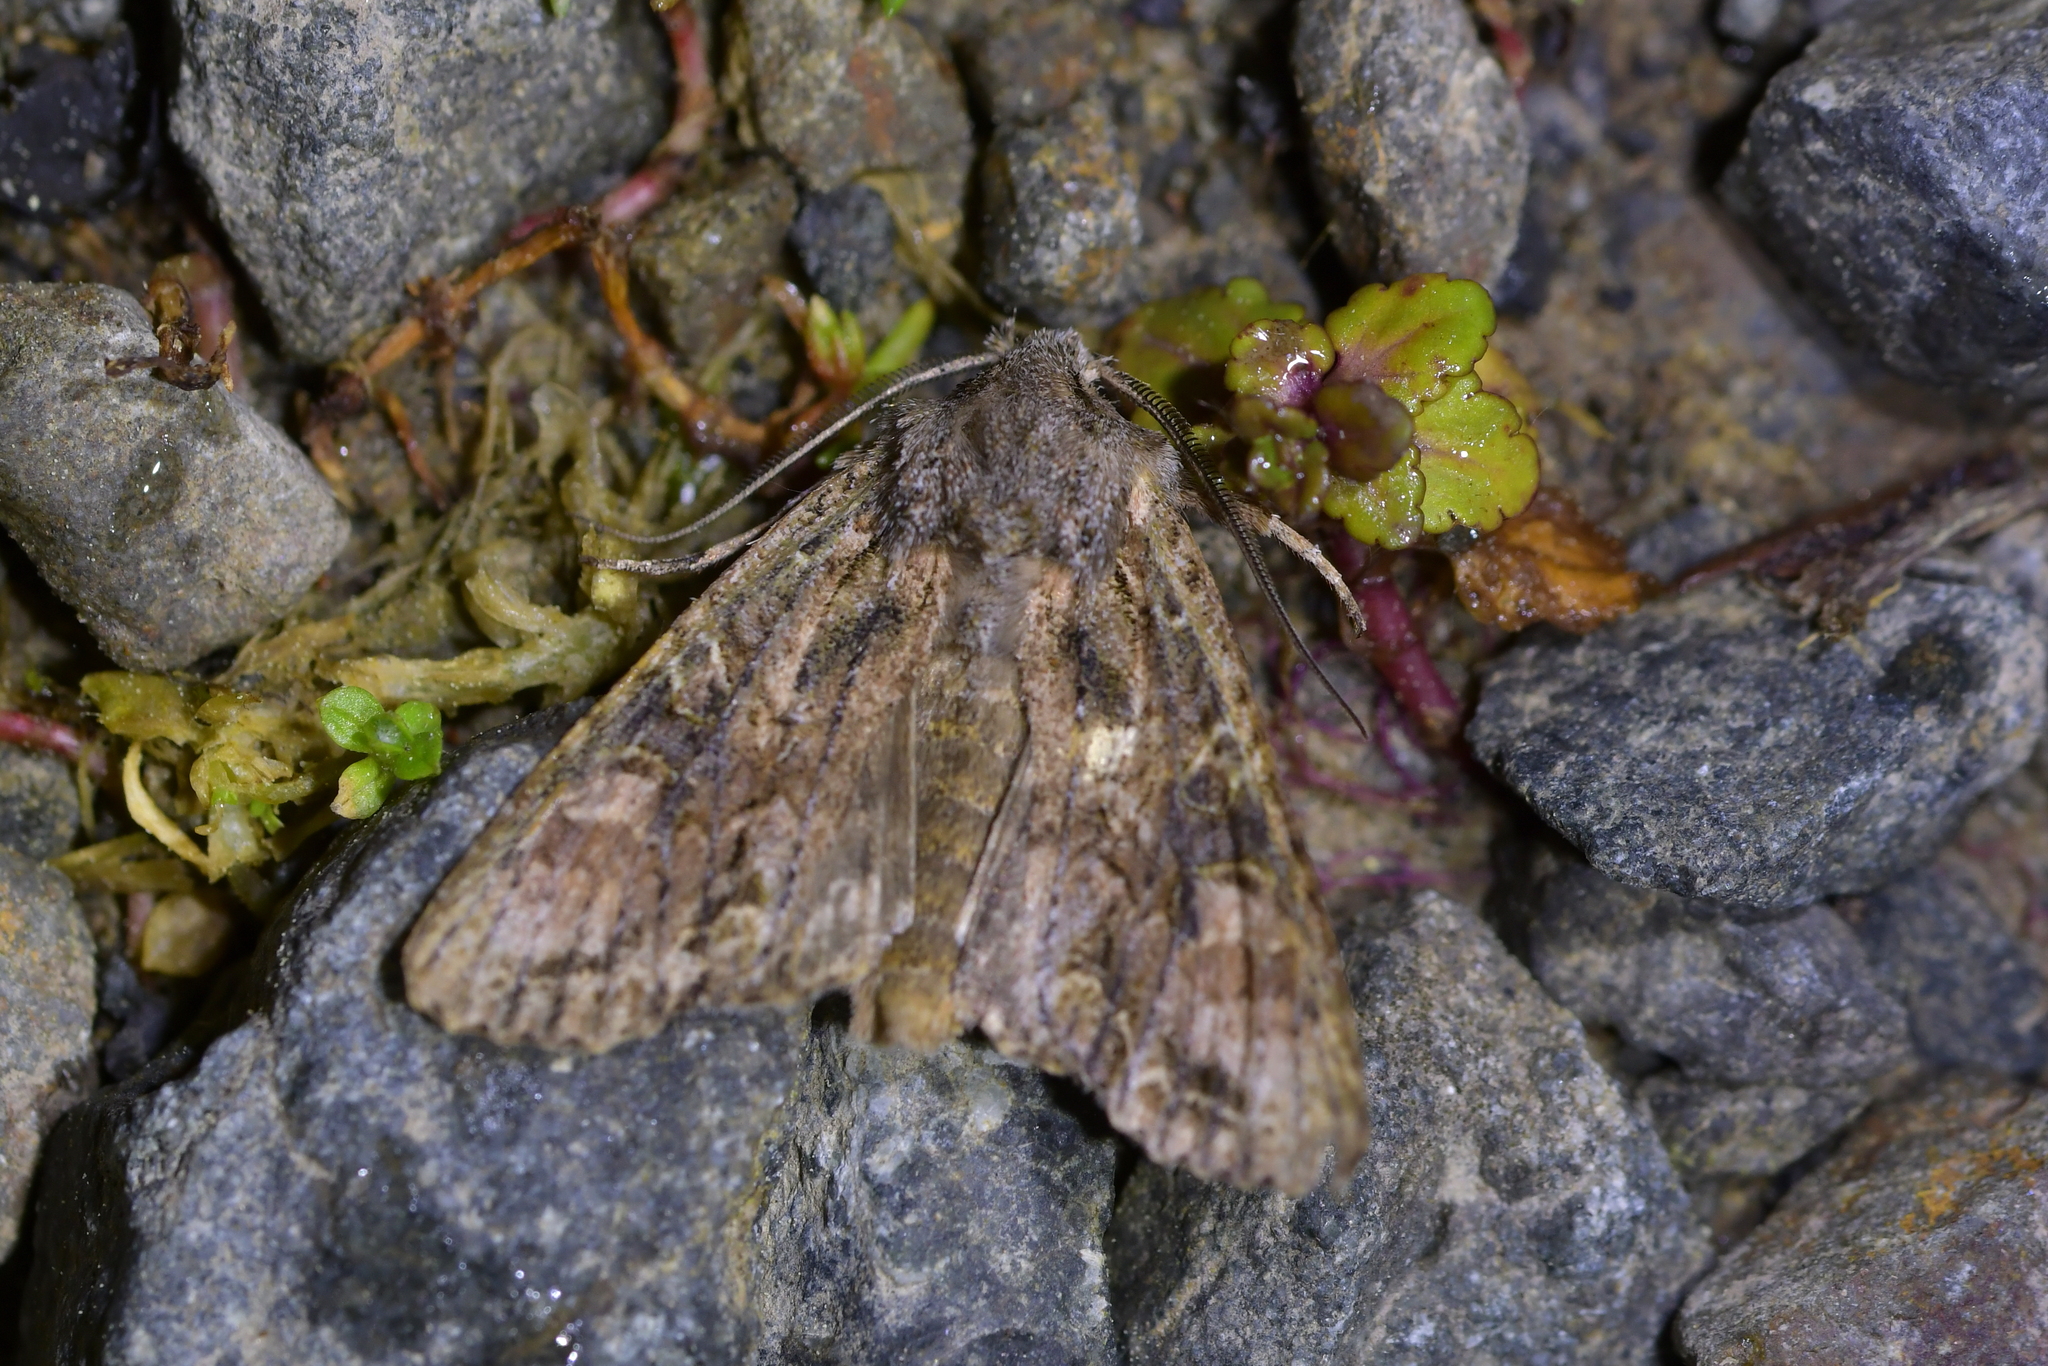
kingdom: Animalia
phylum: Arthropoda
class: Insecta
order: Lepidoptera
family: Noctuidae
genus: Ichneutica
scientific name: Ichneutica mutans
